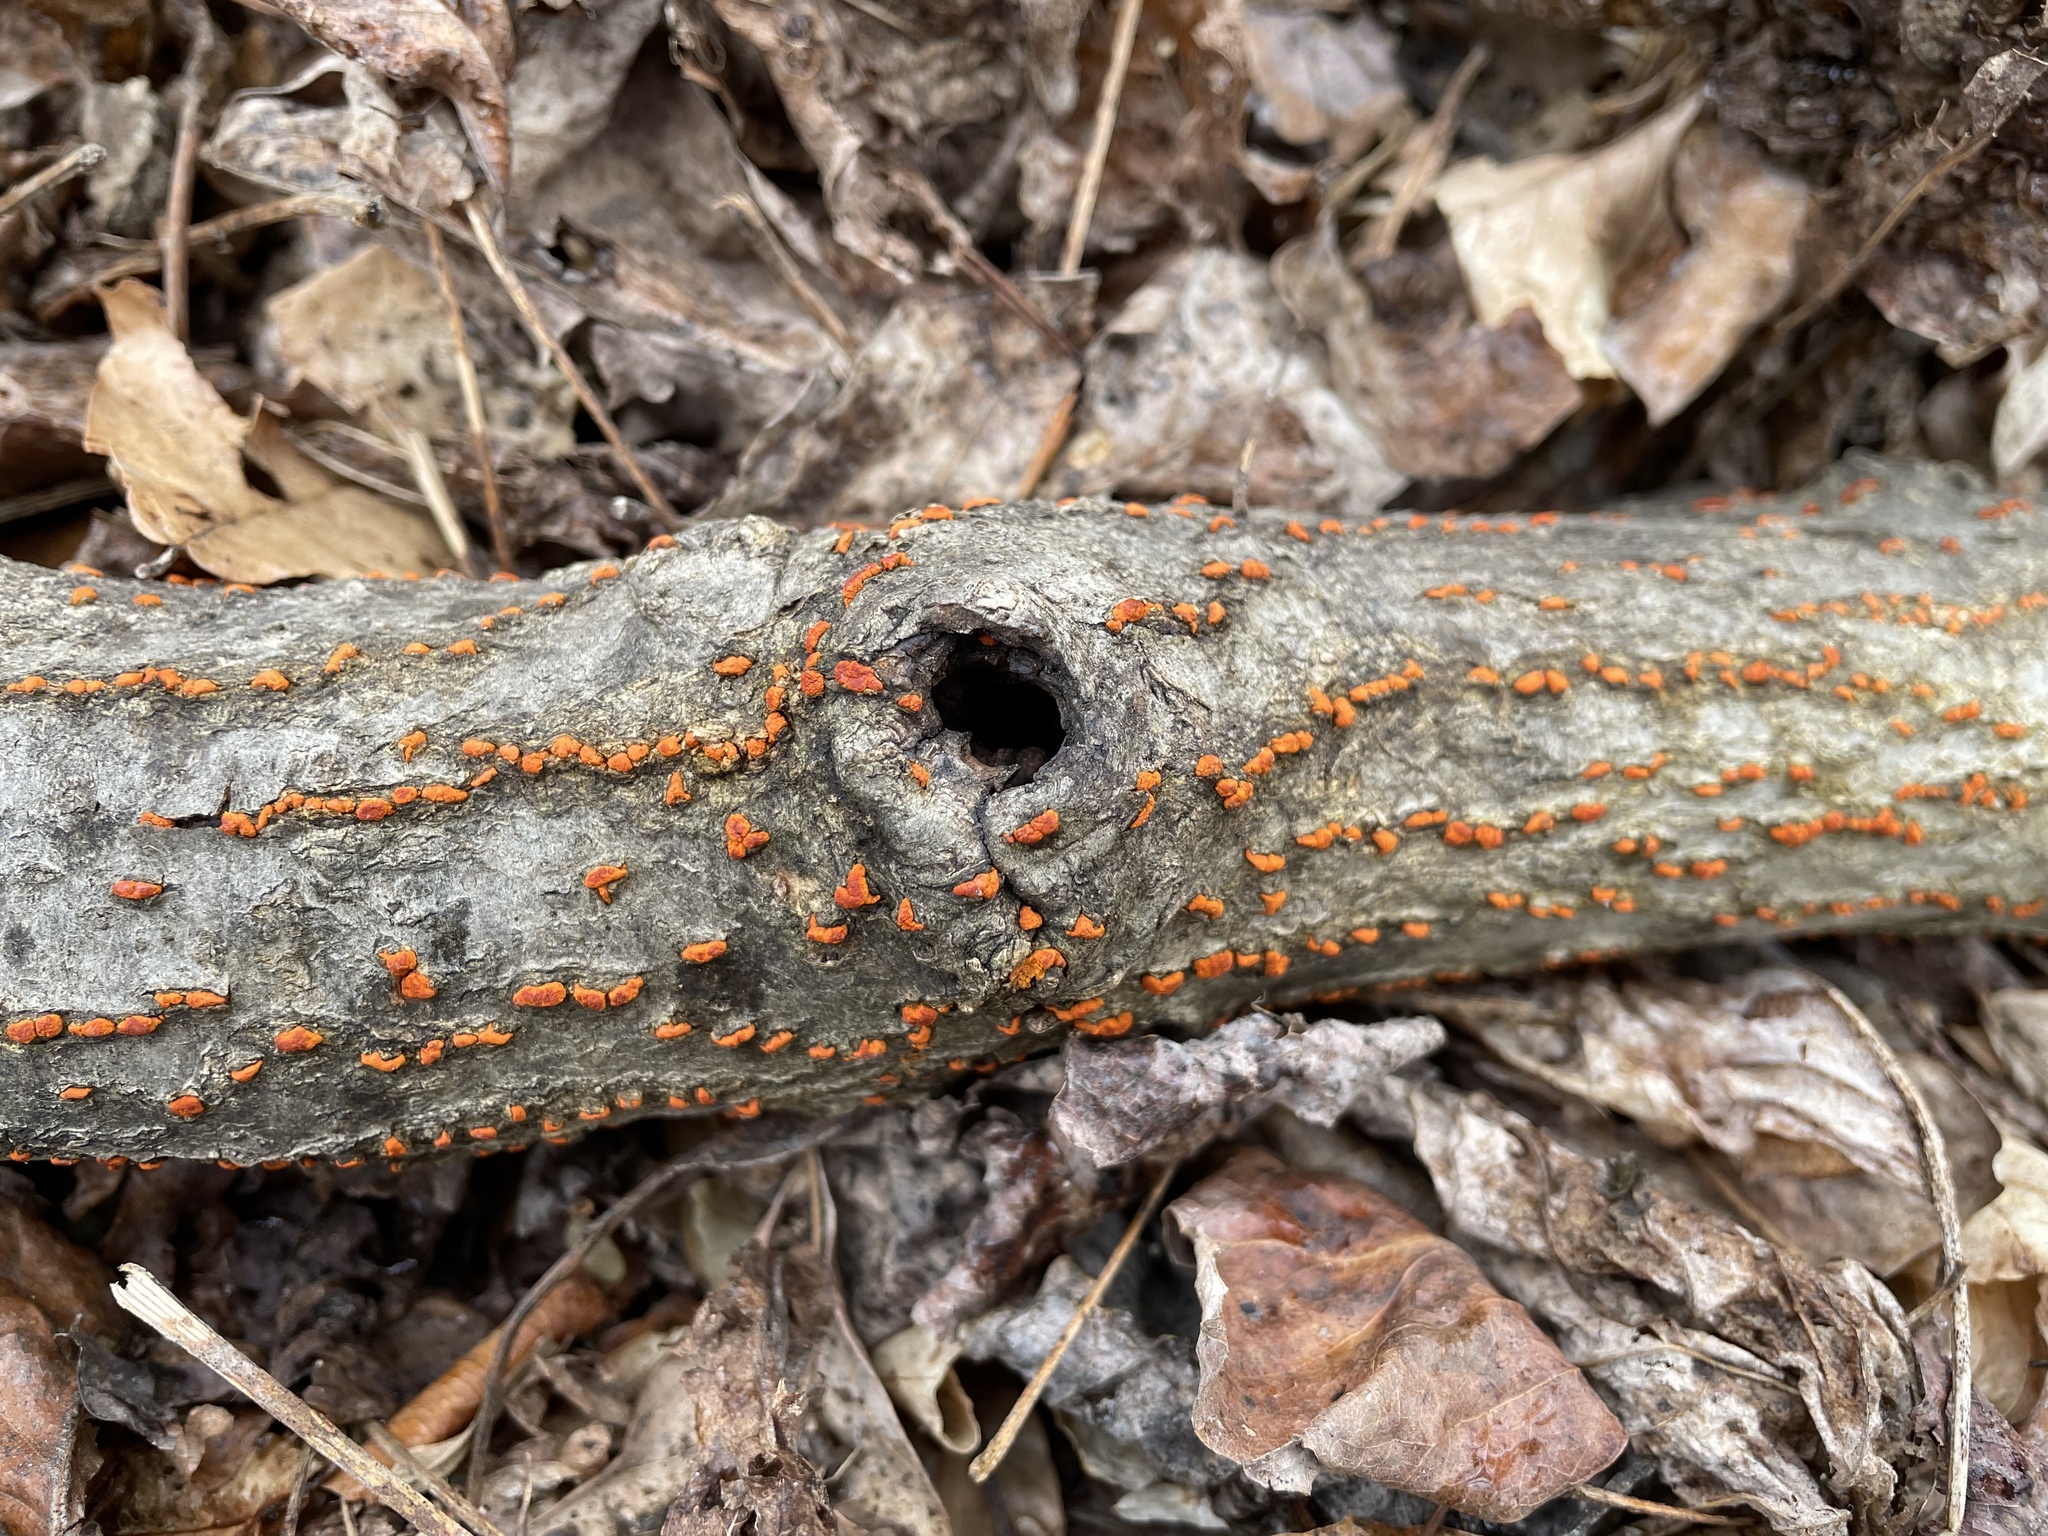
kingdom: Fungi
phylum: Ascomycota
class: Sordariomycetes
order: Diaporthales
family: Cryphonectriaceae
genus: Amphilogia
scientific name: Amphilogia gyrosa
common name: Orange hobnail canker
